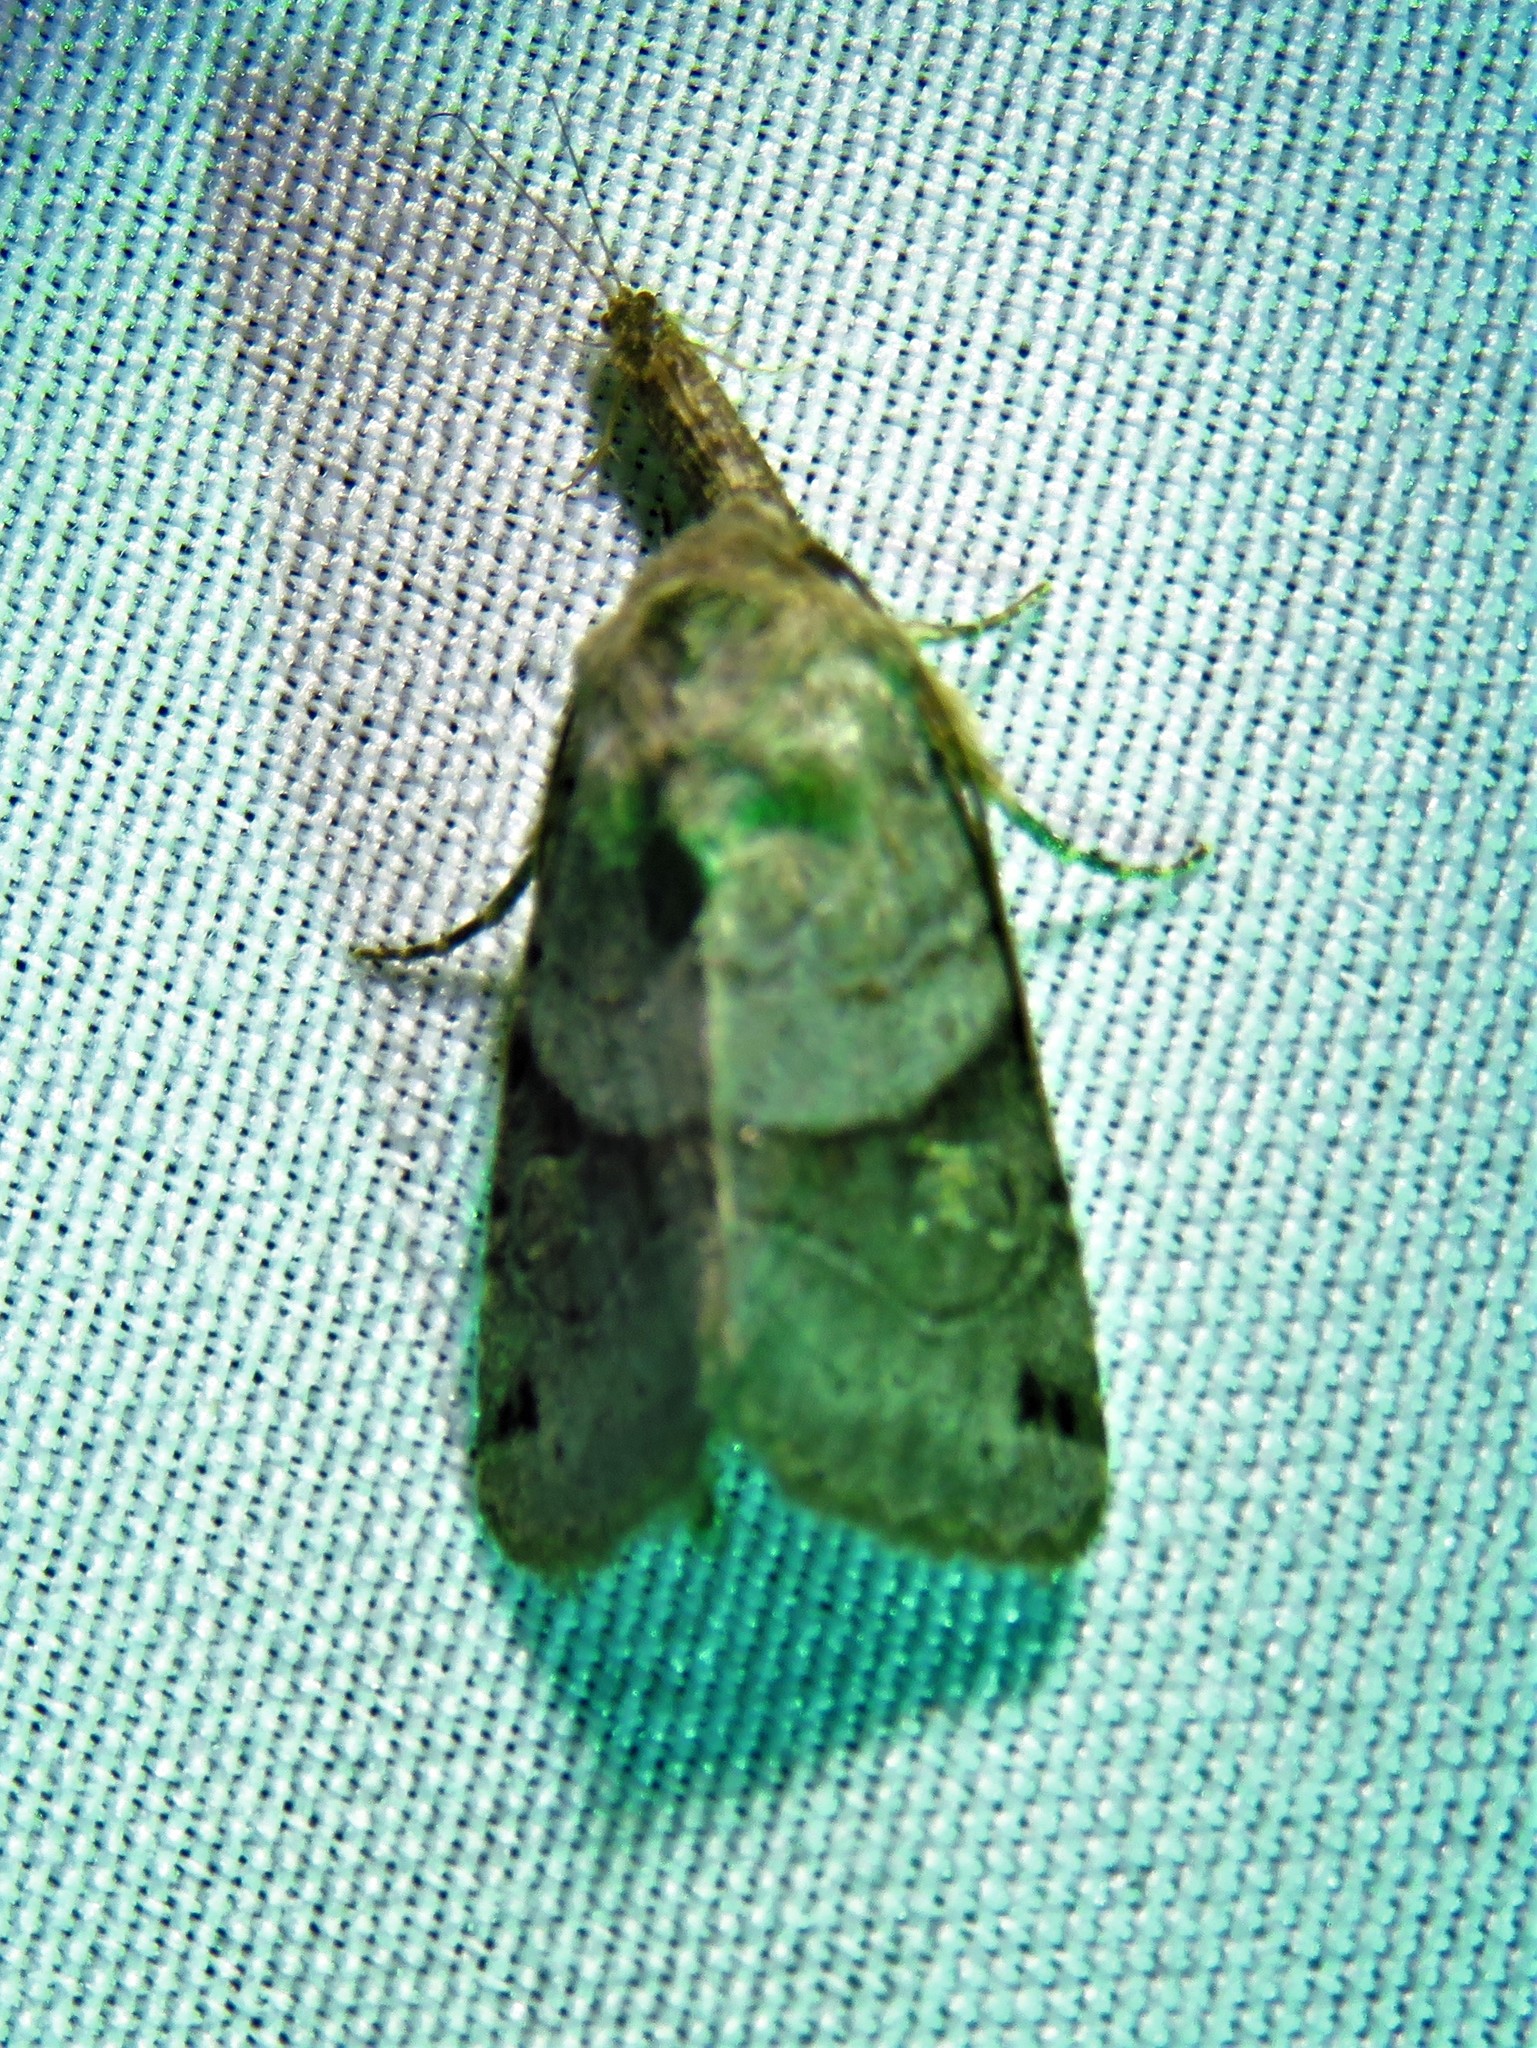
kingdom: Animalia
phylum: Arthropoda
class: Insecta
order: Lepidoptera
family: Noctuidae
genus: Ulolonche
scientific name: Ulolonche disticha
